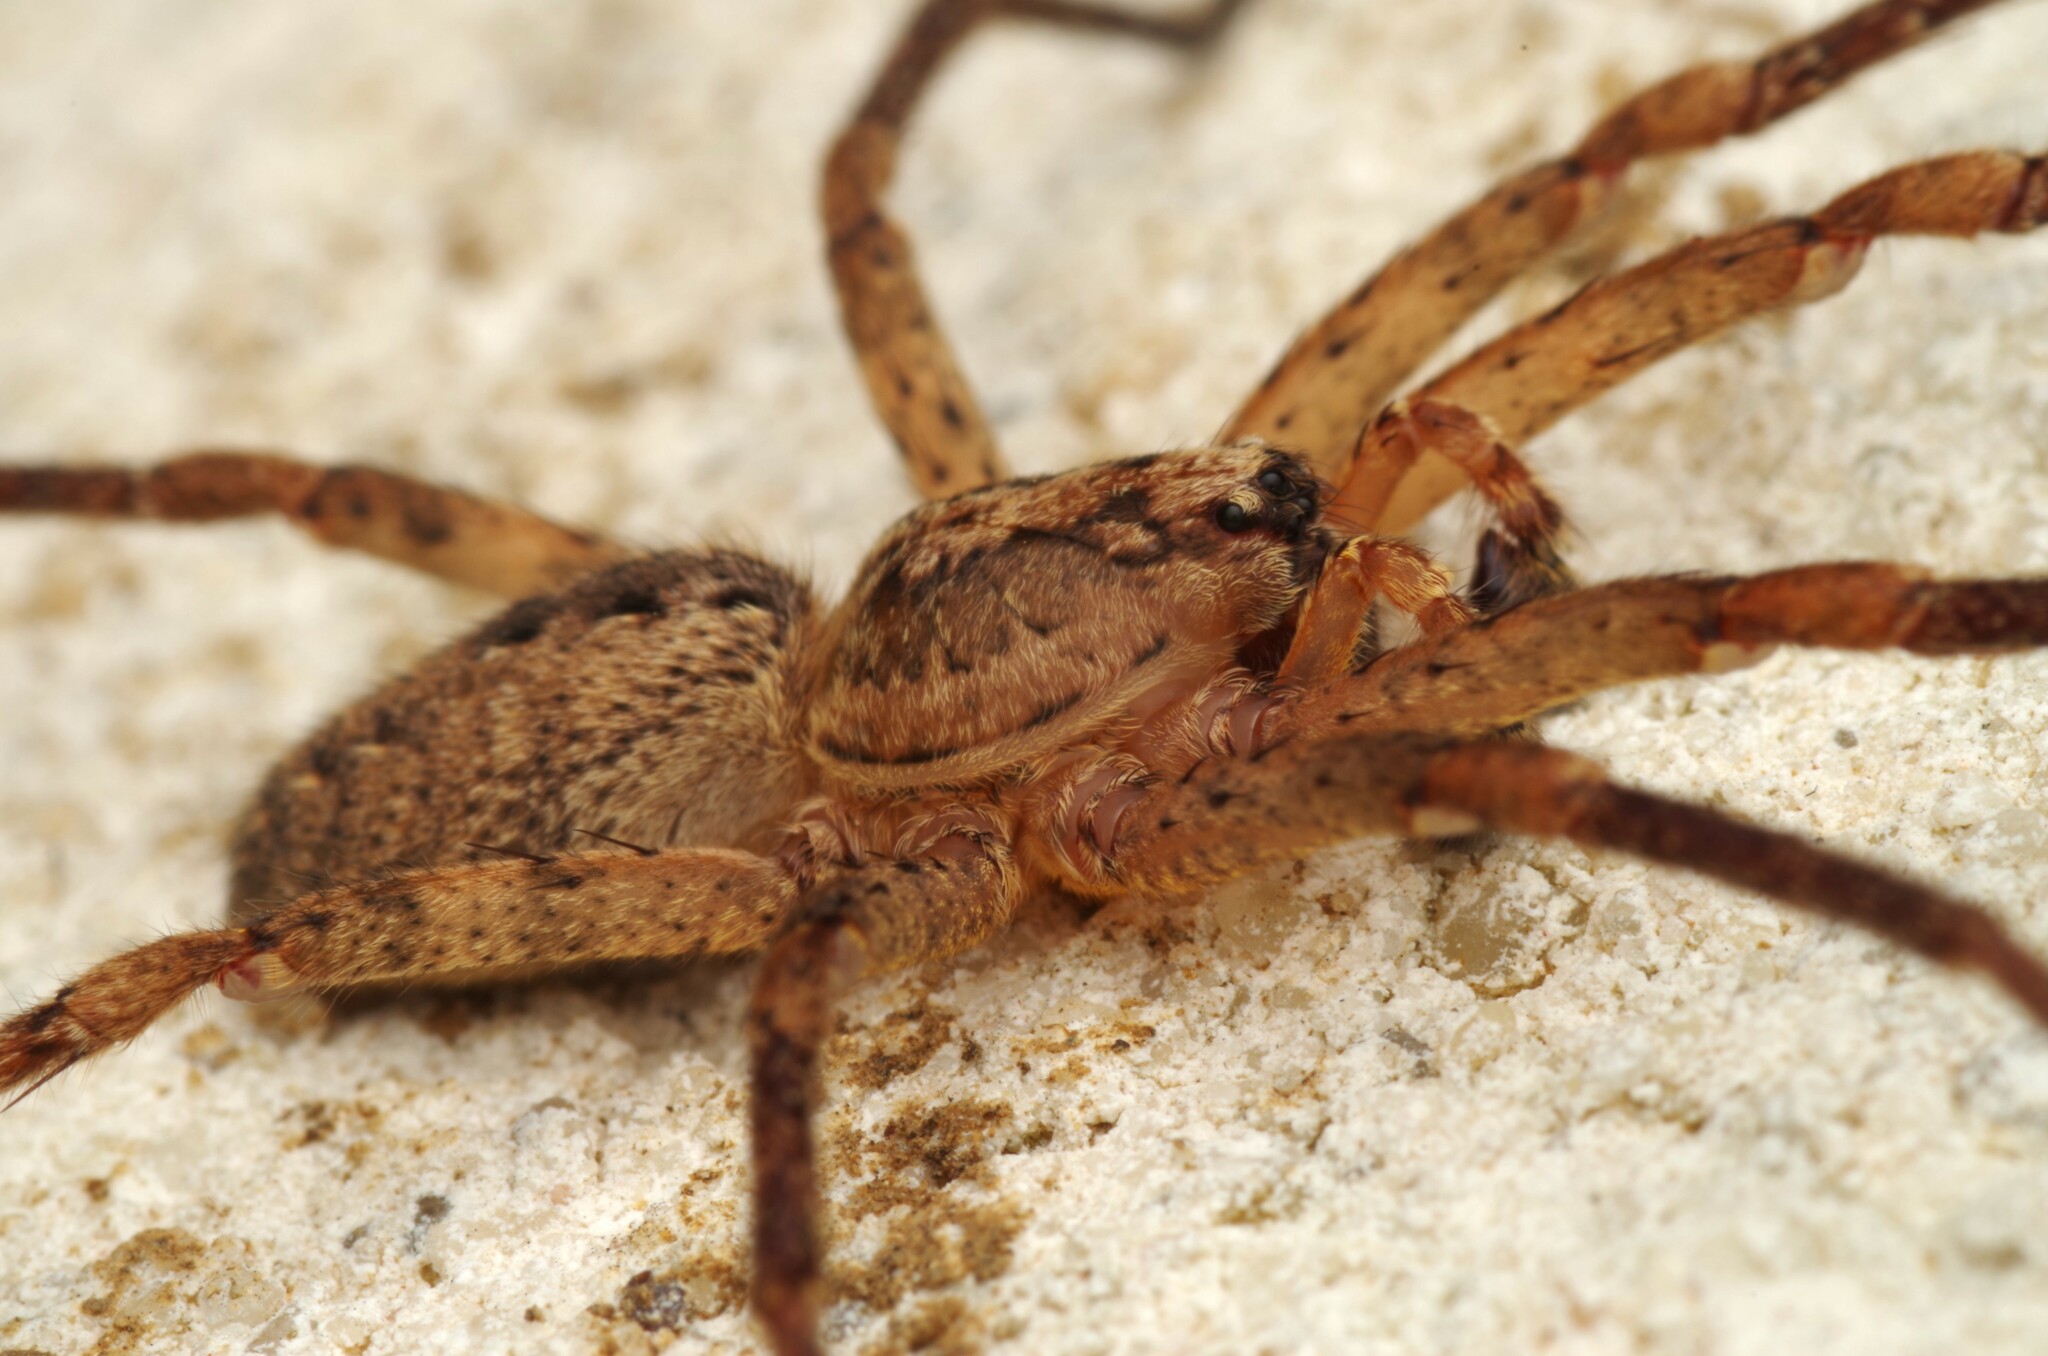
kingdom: Animalia
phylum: Arthropoda
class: Arachnida
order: Araneae
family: Zoropsidae
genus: Zoropsis
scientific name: Zoropsis spinimana
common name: Zoropsid spider
